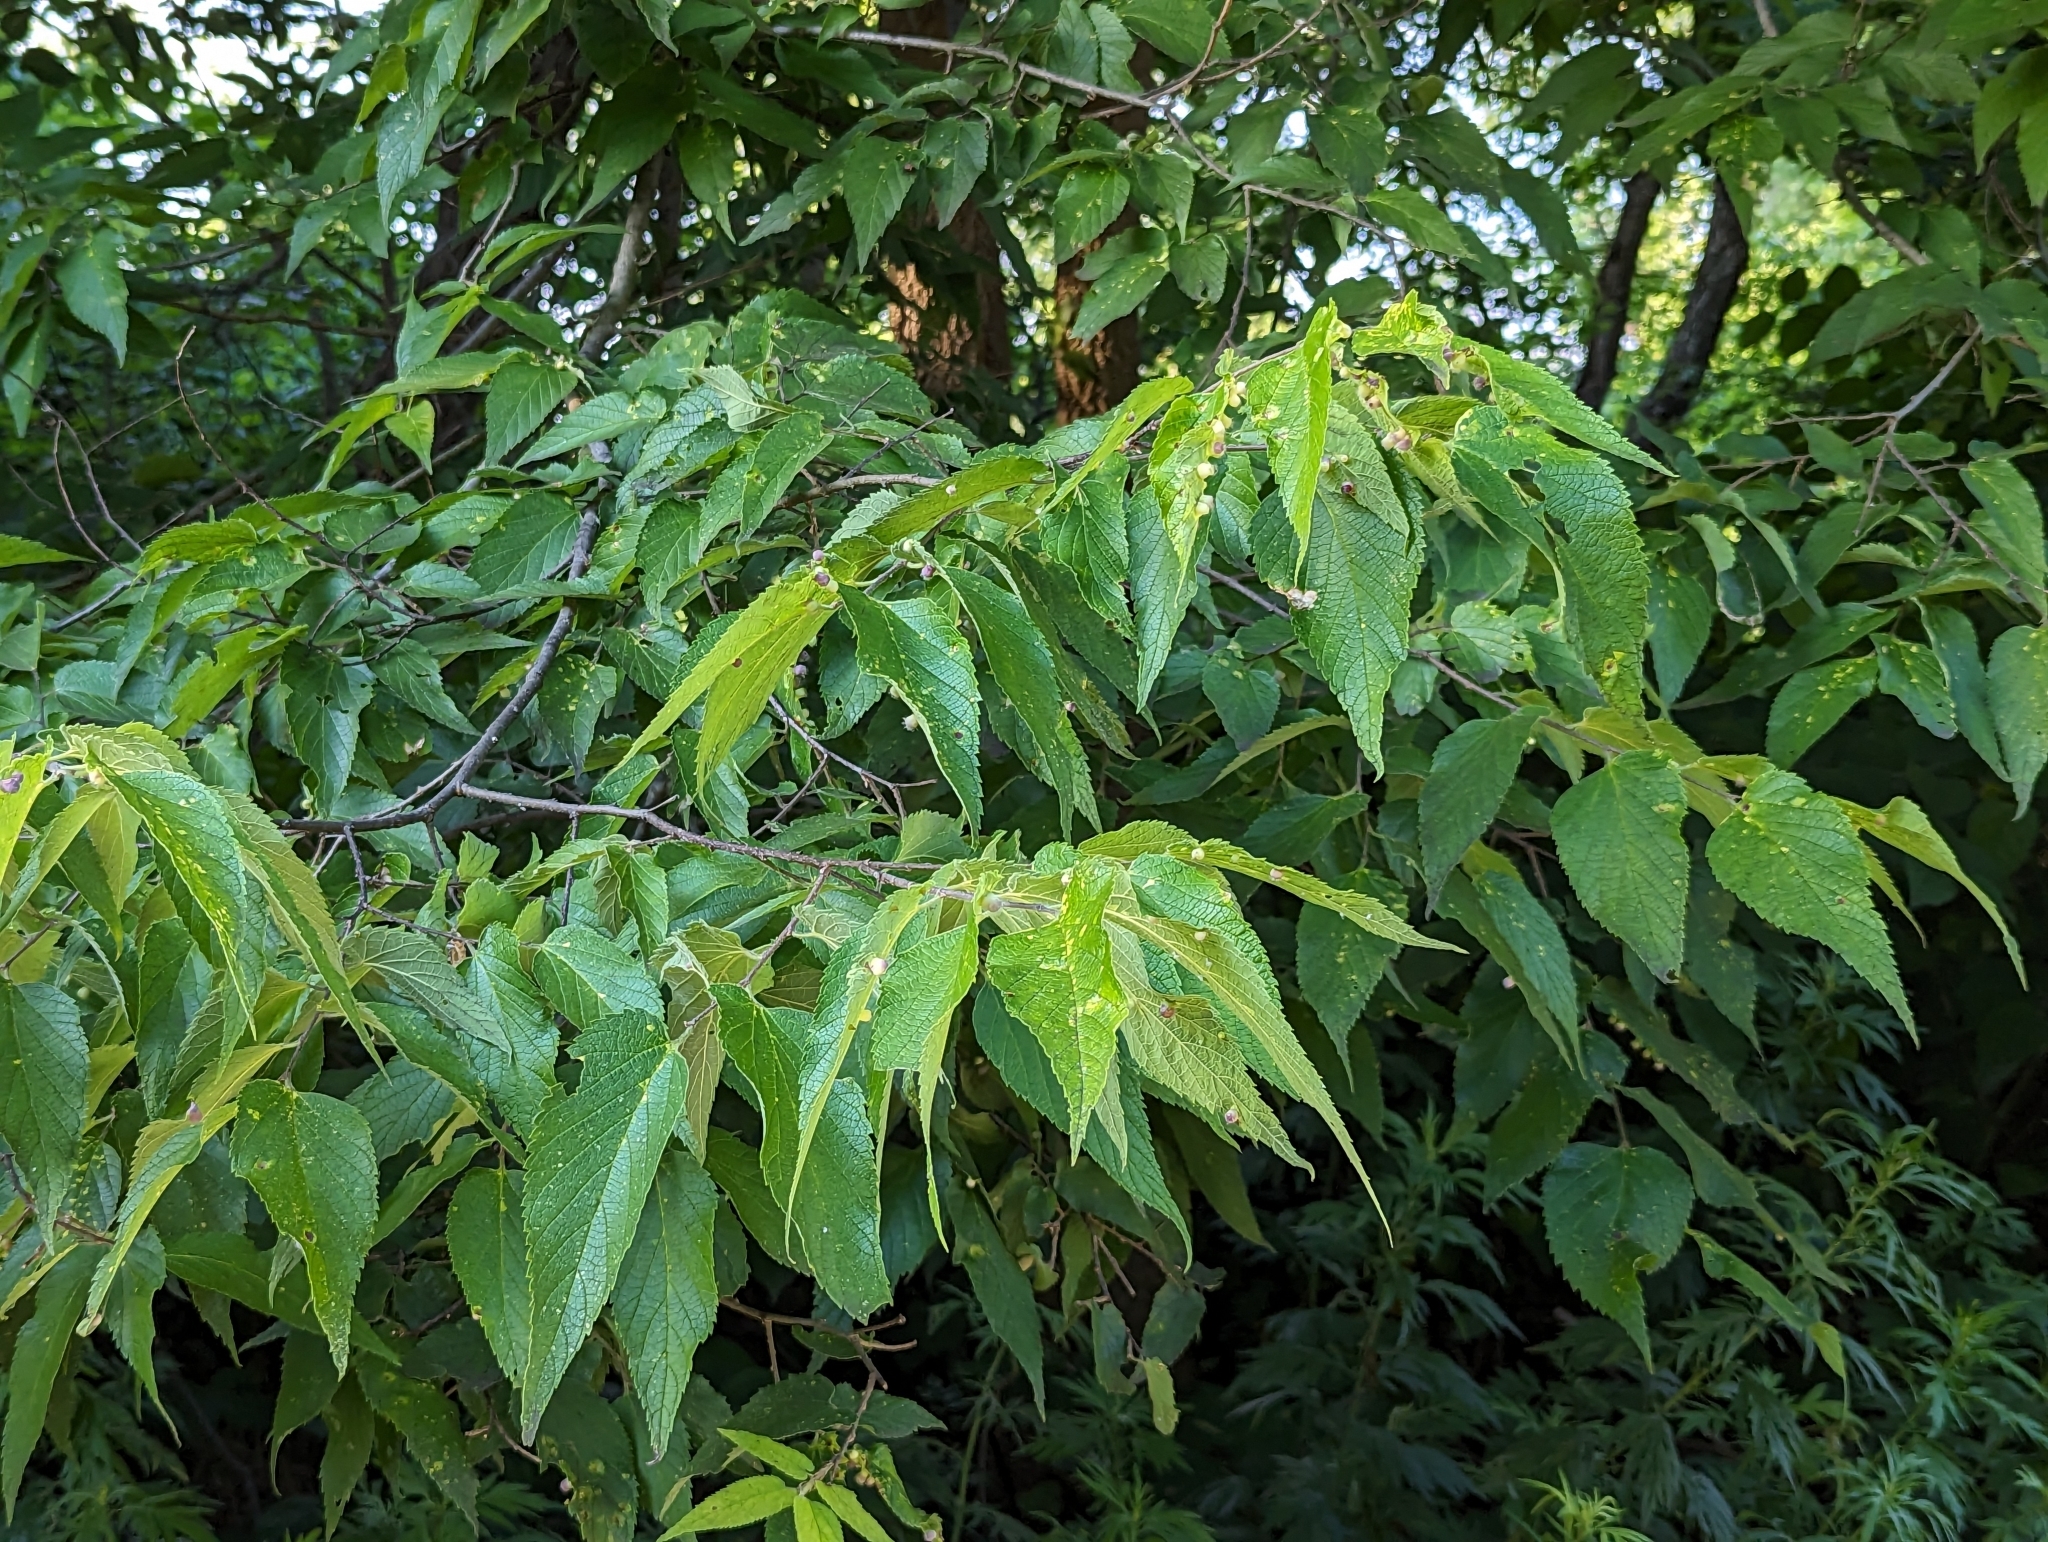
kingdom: Animalia
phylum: Arthropoda
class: Insecta
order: Hemiptera
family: Aphalaridae
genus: Pachypsylla
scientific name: Pachypsylla celtidismamma
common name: Hackberry nipplegall psyllid
